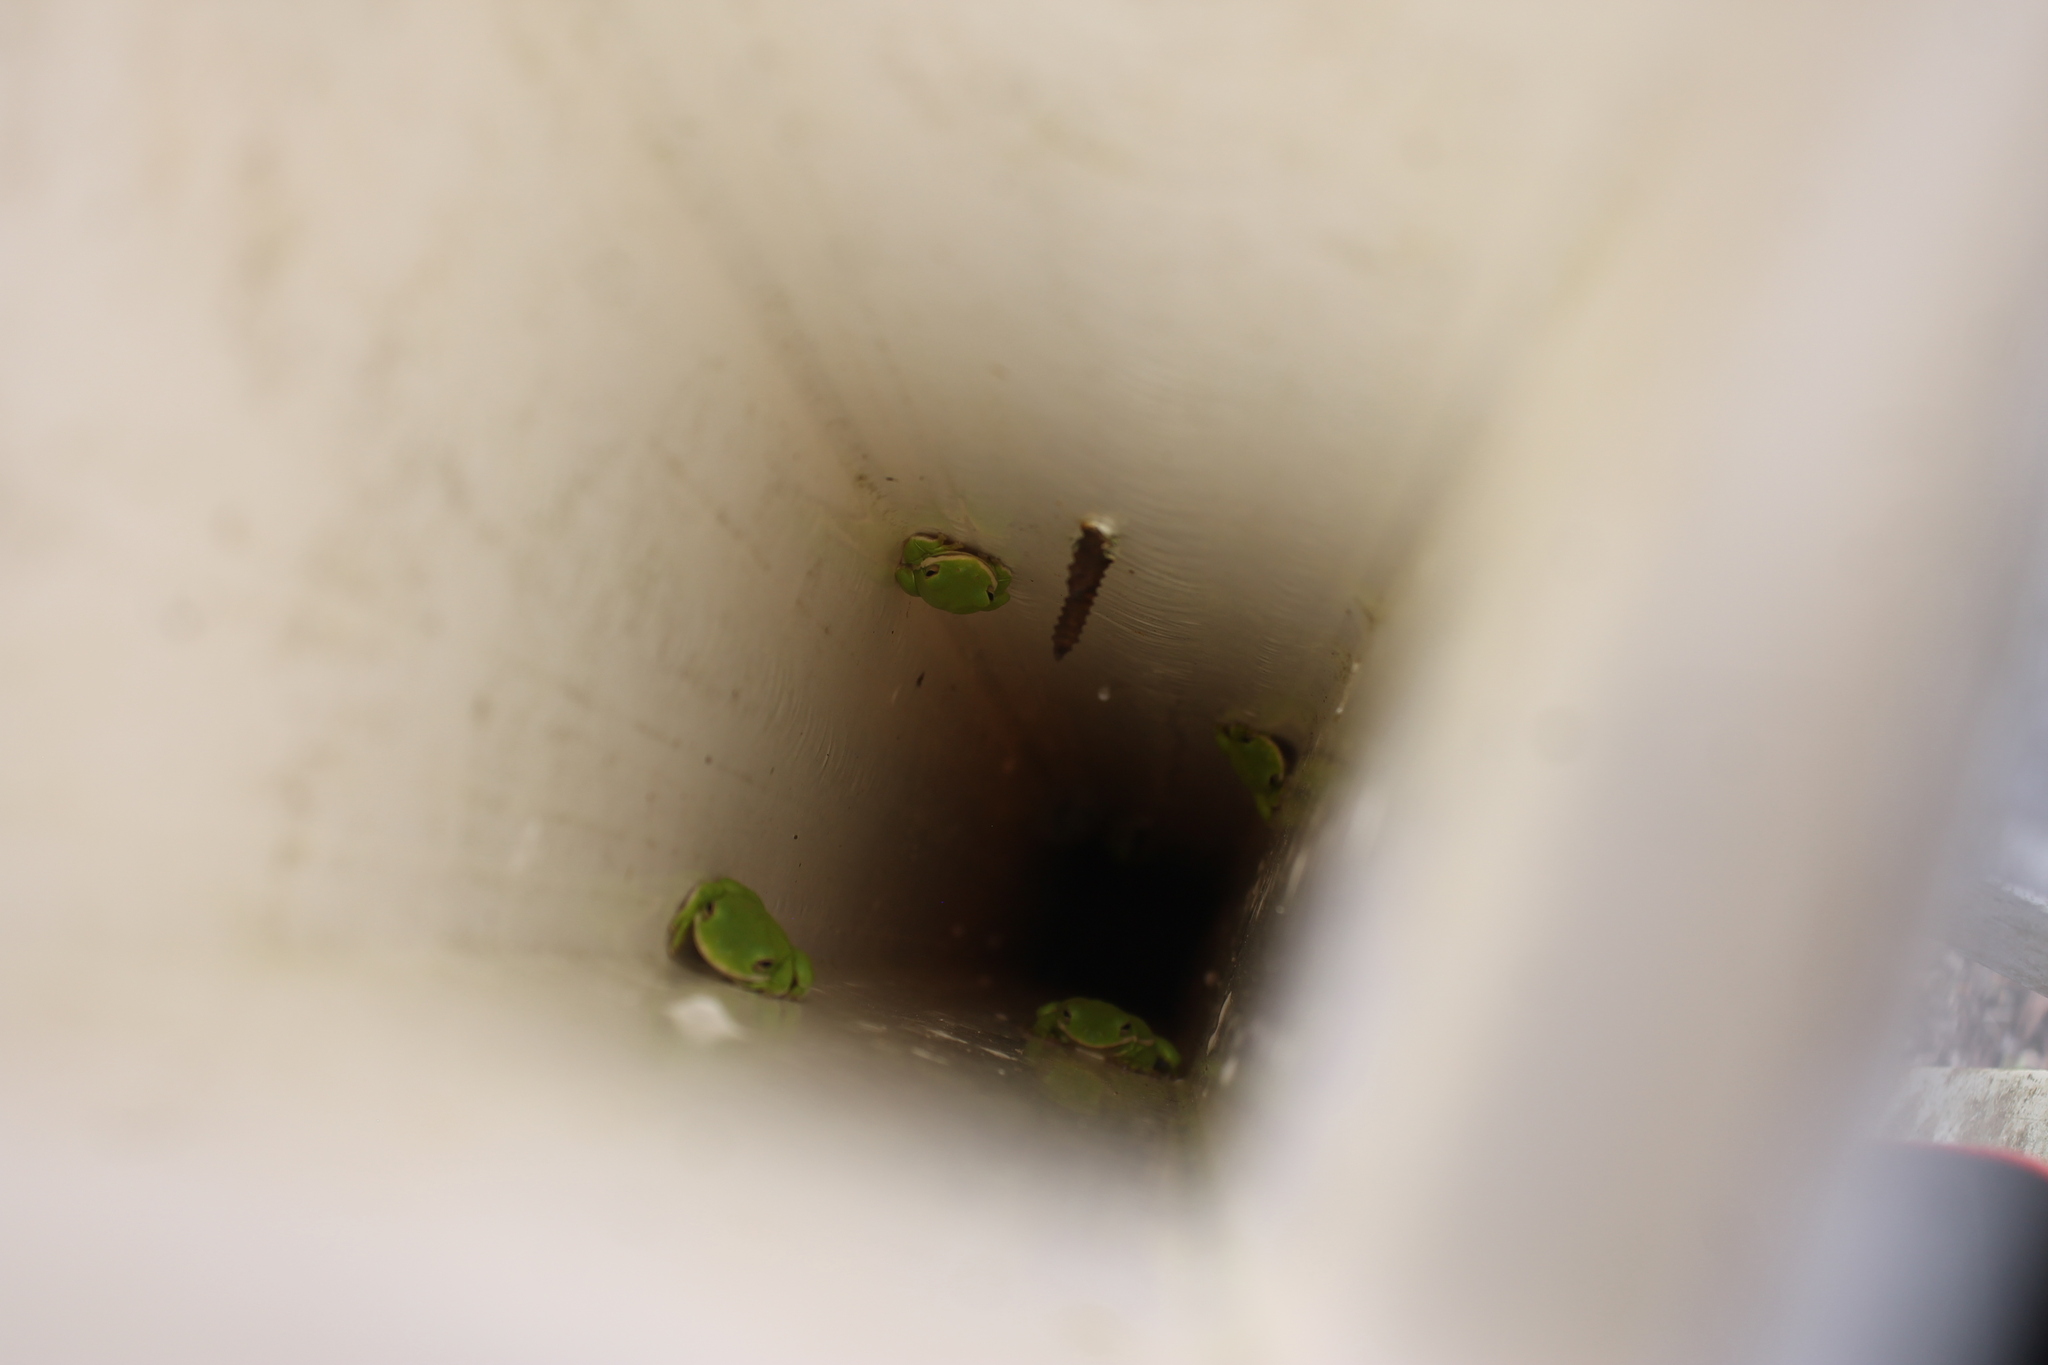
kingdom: Animalia
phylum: Chordata
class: Amphibia
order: Anura
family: Hylidae
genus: Dryophytes
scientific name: Dryophytes cinereus
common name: Green treefrog
